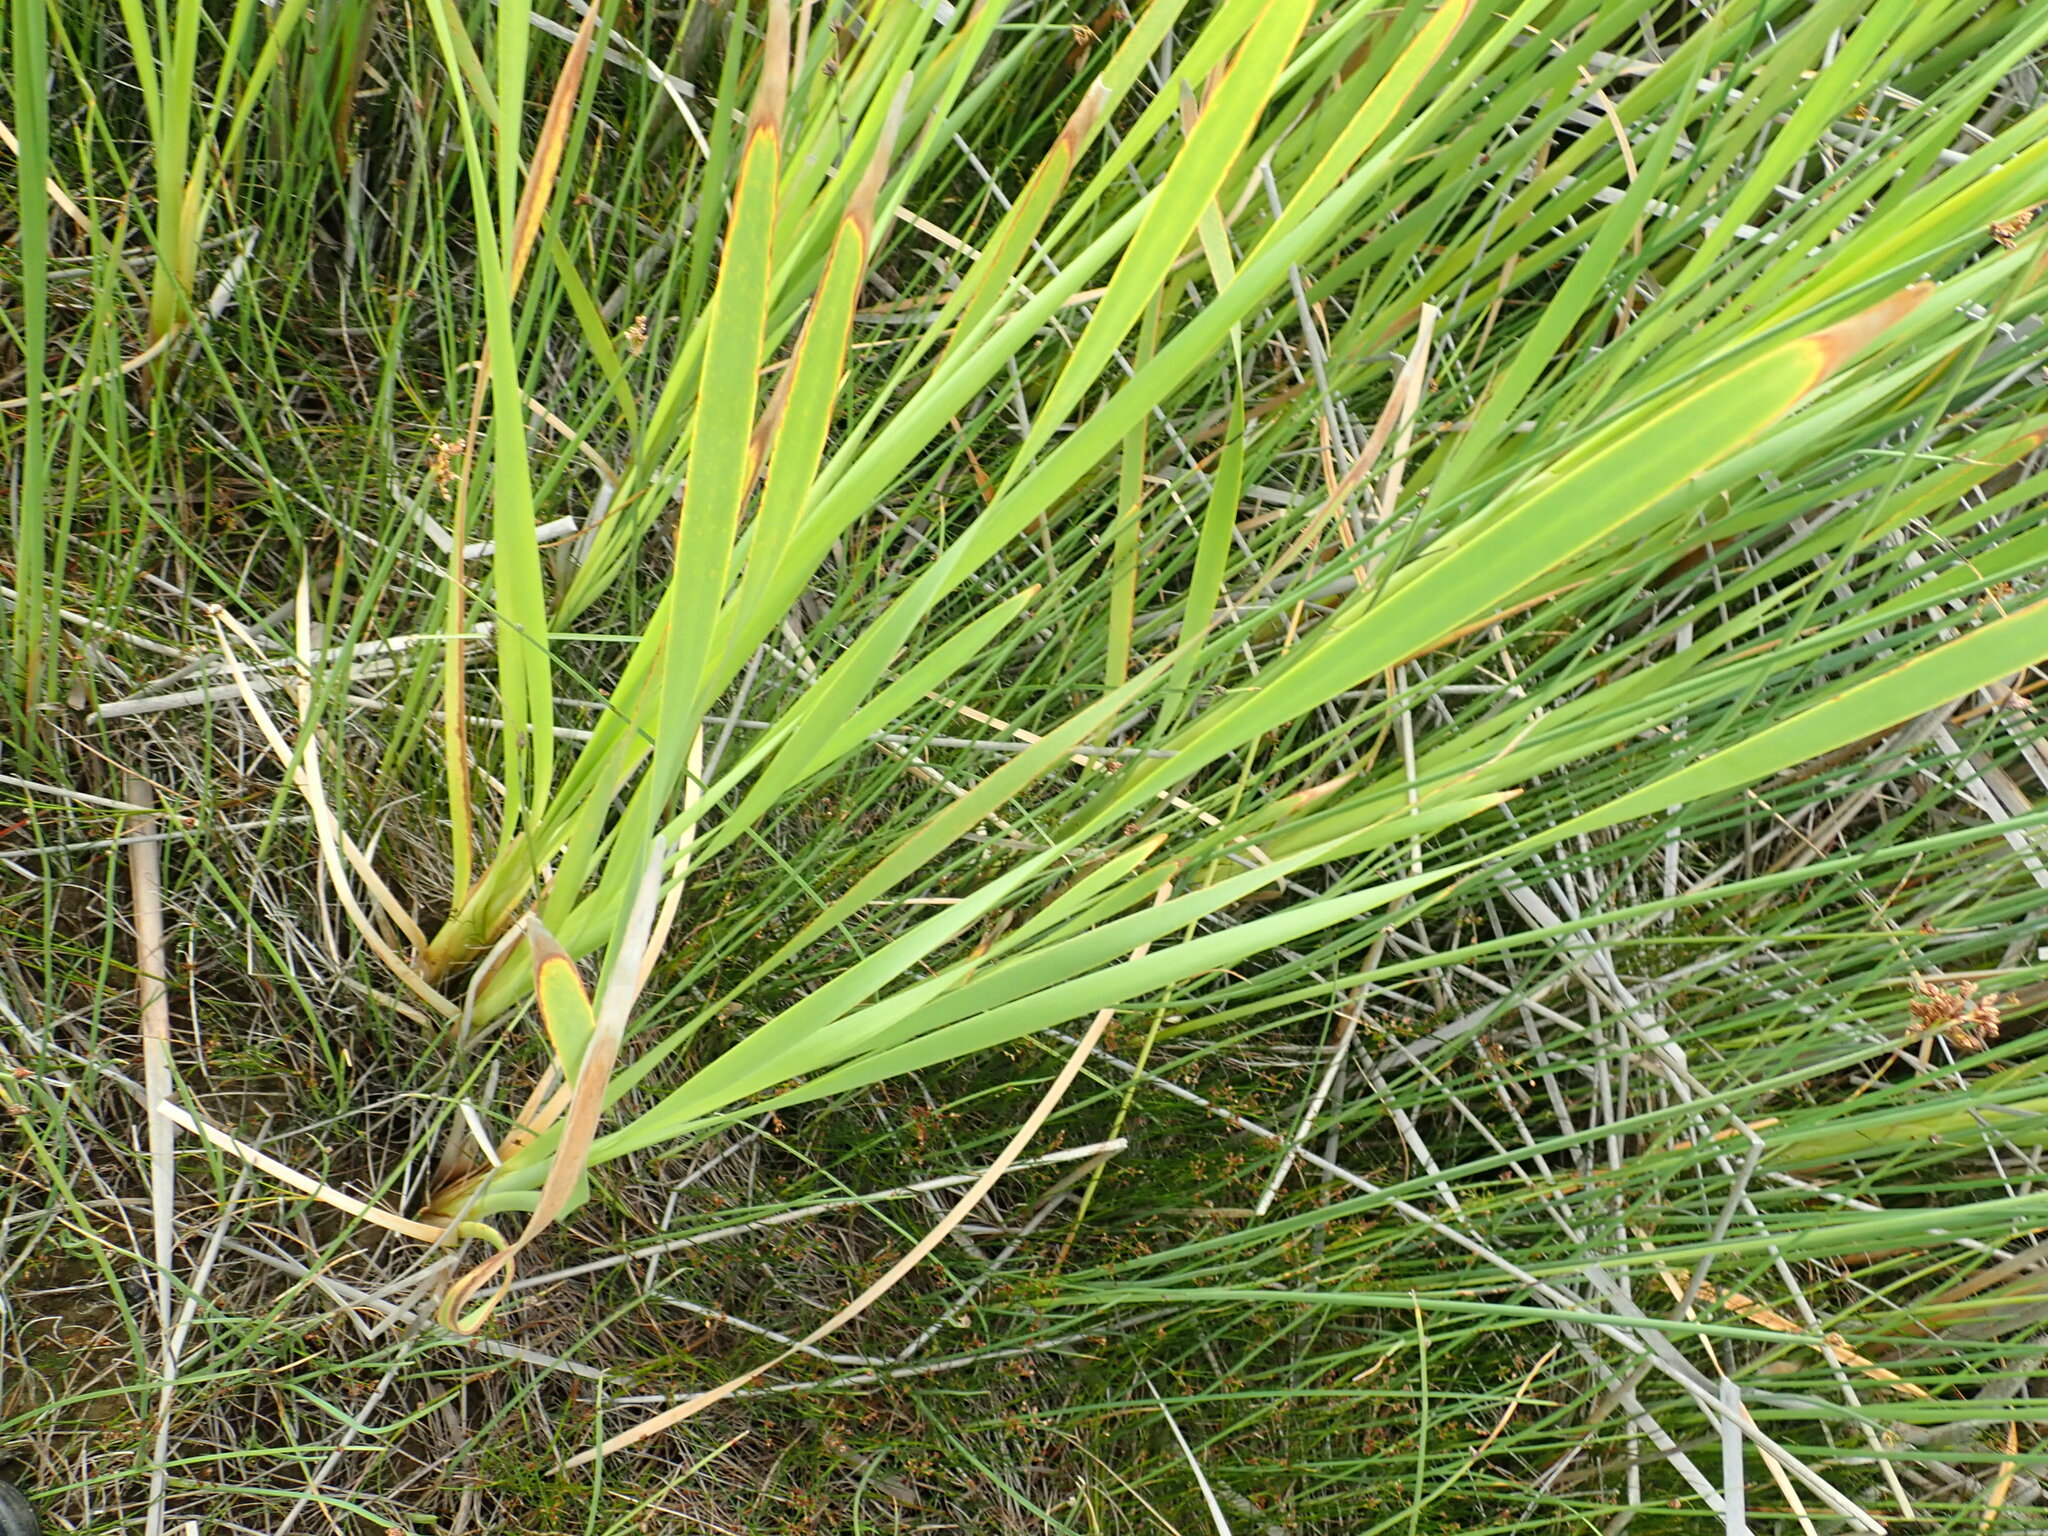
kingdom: Plantae
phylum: Tracheophyta
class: Liliopsida
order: Poales
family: Typhaceae
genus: Typha
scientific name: Typha orientalis
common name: Bullrush
